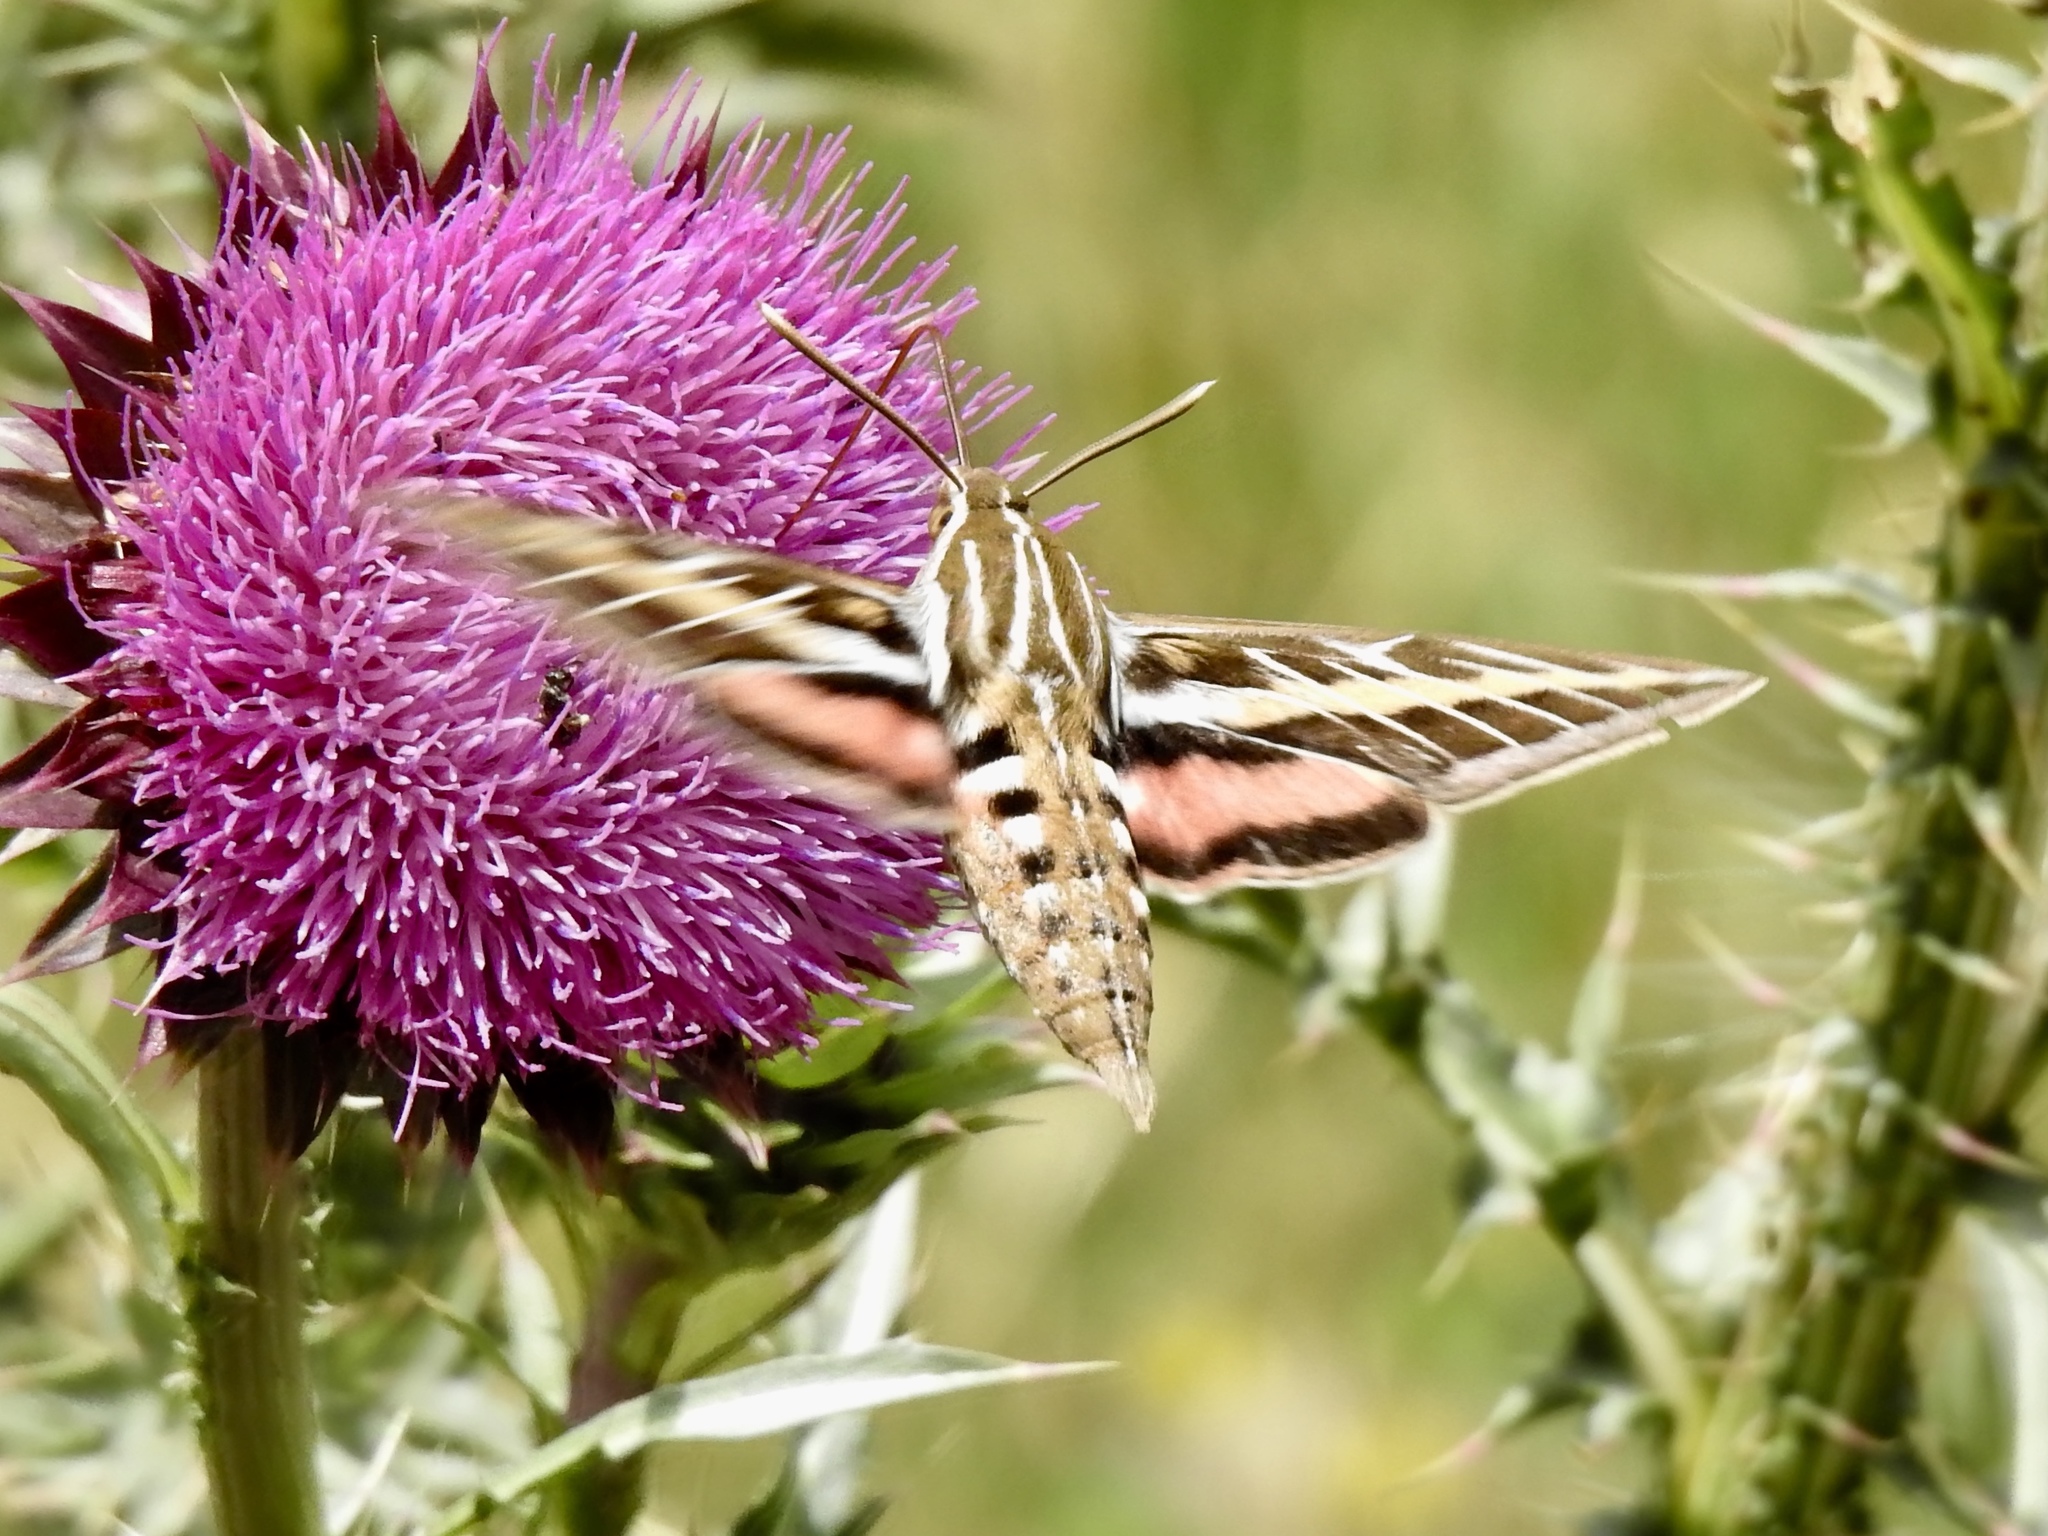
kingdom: Animalia
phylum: Arthropoda
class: Insecta
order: Lepidoptera
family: Sphingidae
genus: Hyles
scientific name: Hyles lineata
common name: White-lined sphinx
